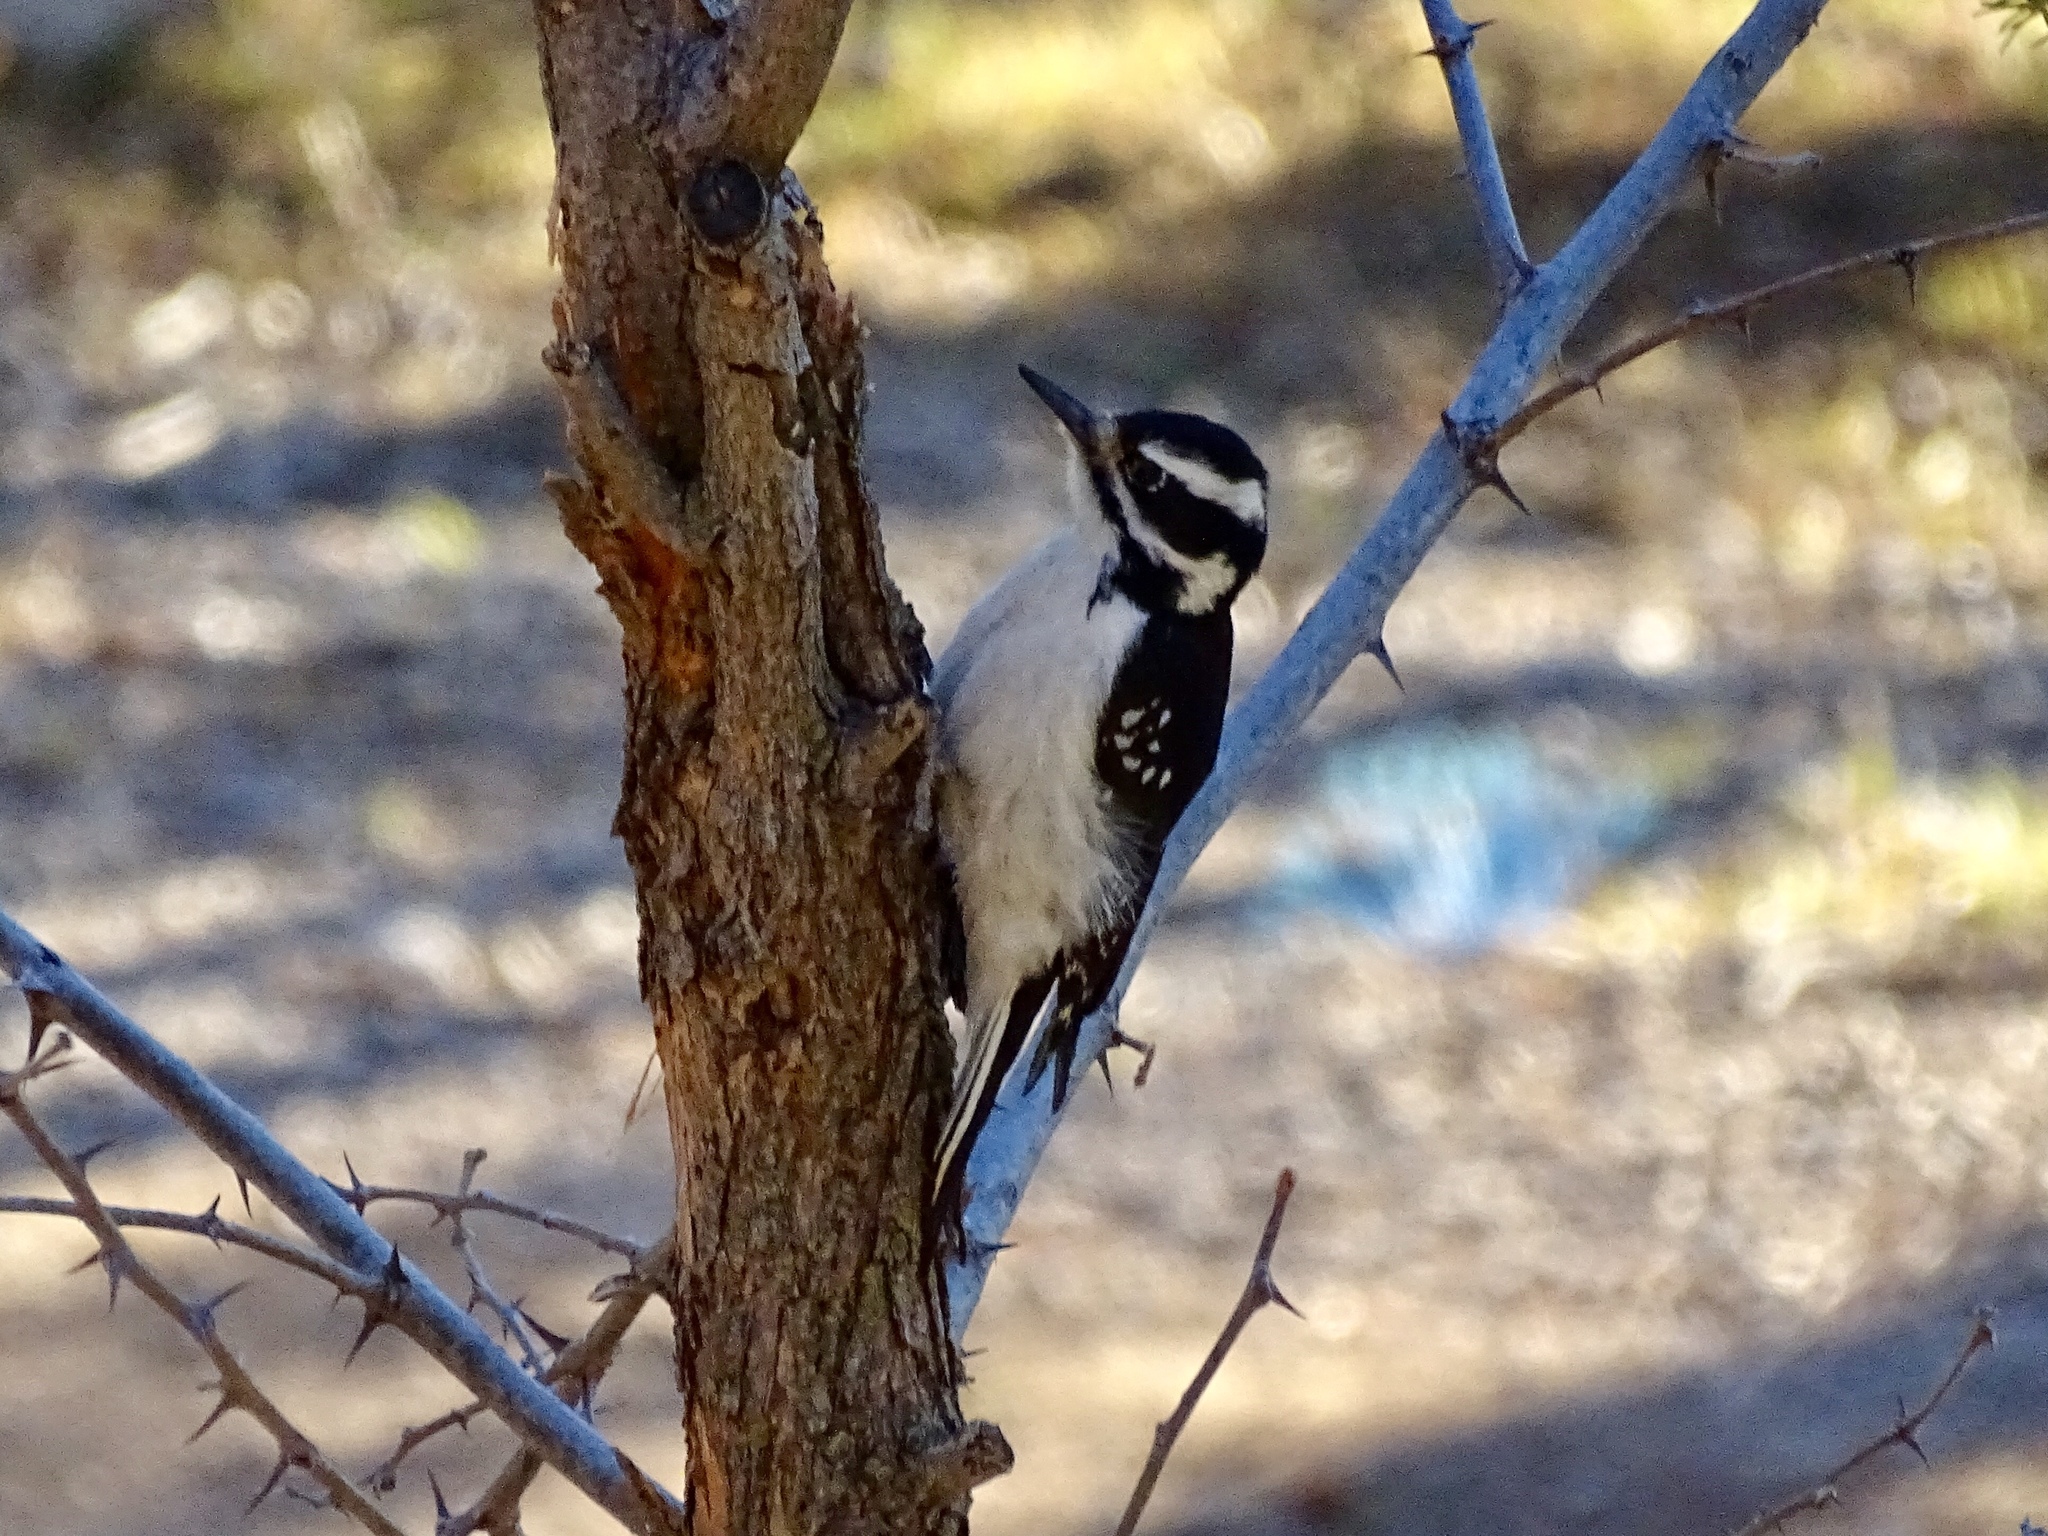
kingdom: Animalia
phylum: Chordata
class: Aves
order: Piciformes
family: Picidae
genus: Leuconotopicus
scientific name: Leuconotopicus villosus
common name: Hairy woodpecker
